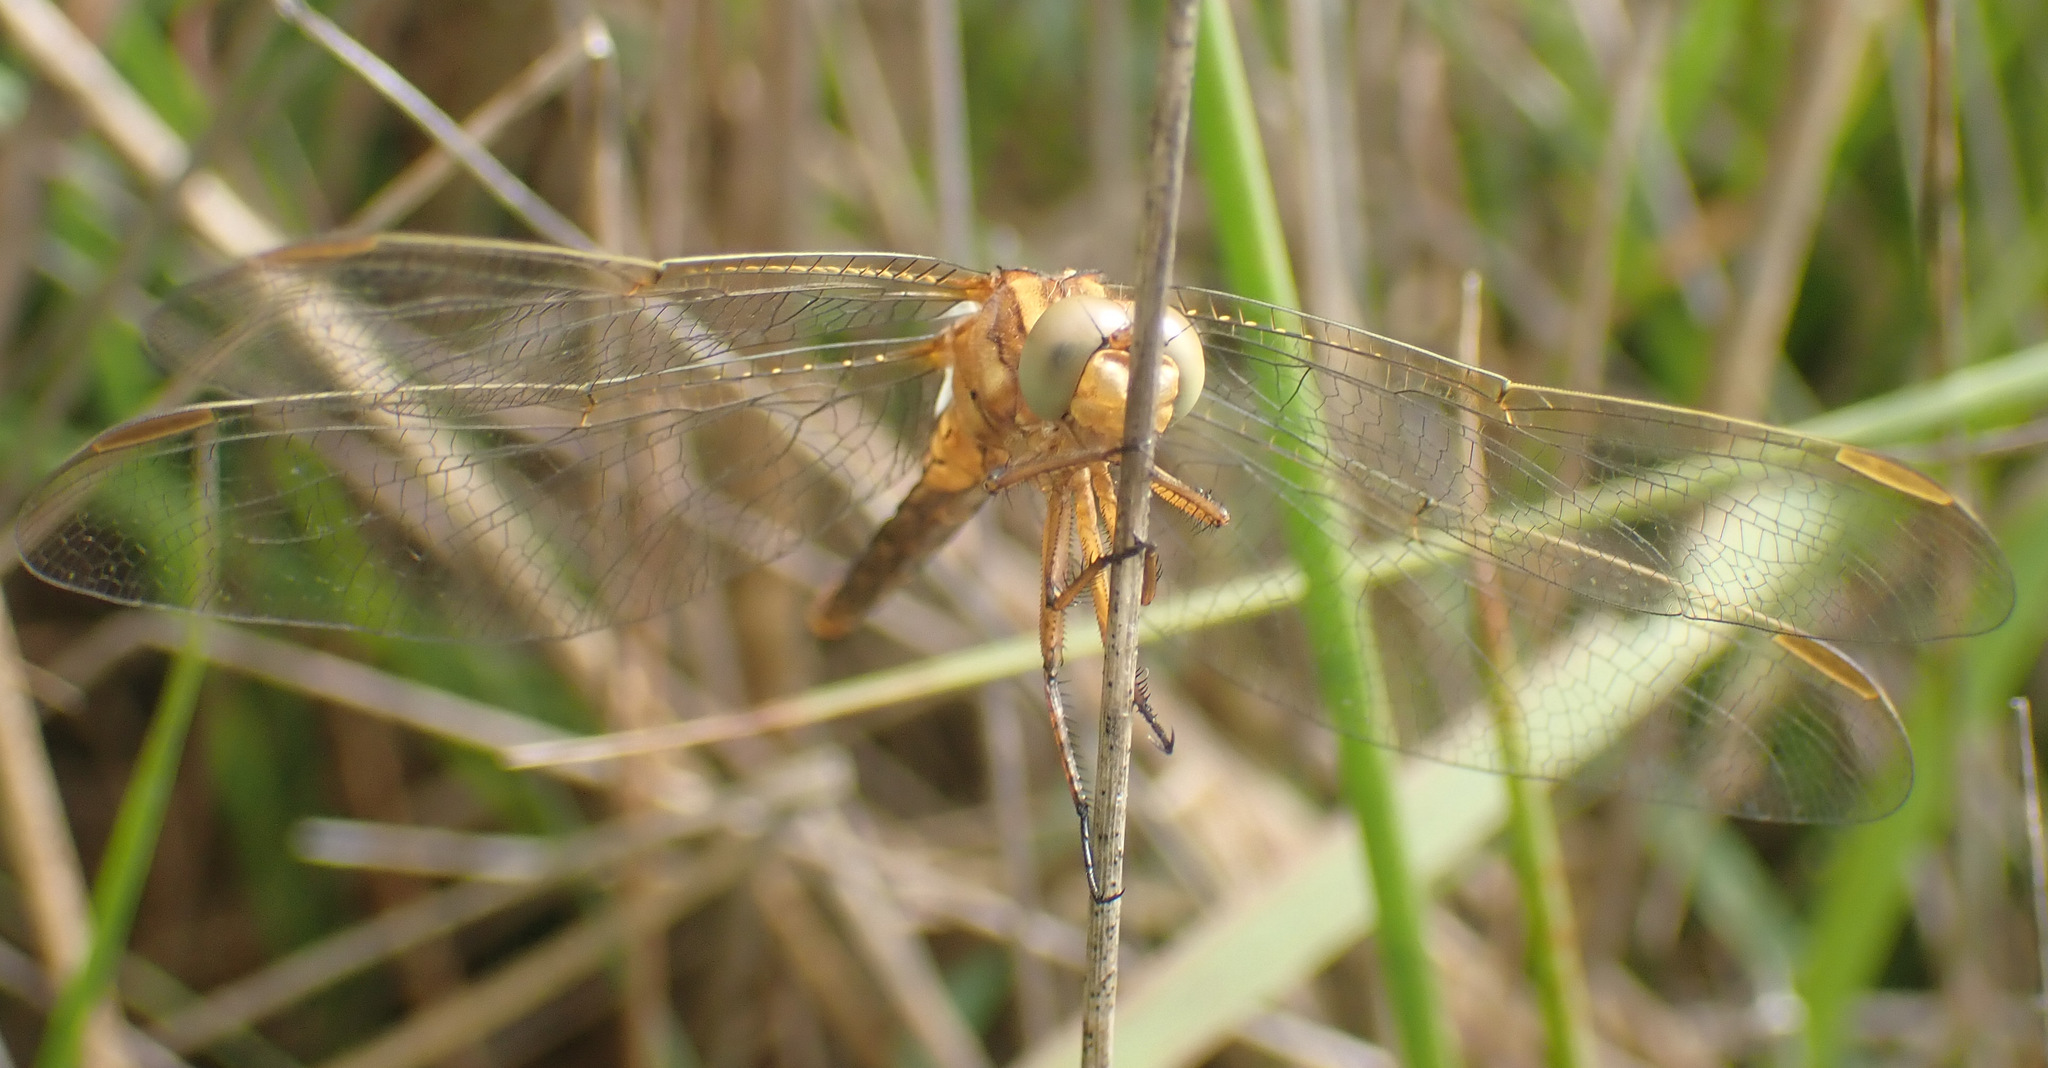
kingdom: Animalia
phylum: Arthropoda
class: Insecta
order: Odonata
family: Libellulidae
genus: Orthetrum
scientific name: Orthetrum coerulescens
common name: Keeled skimmer
